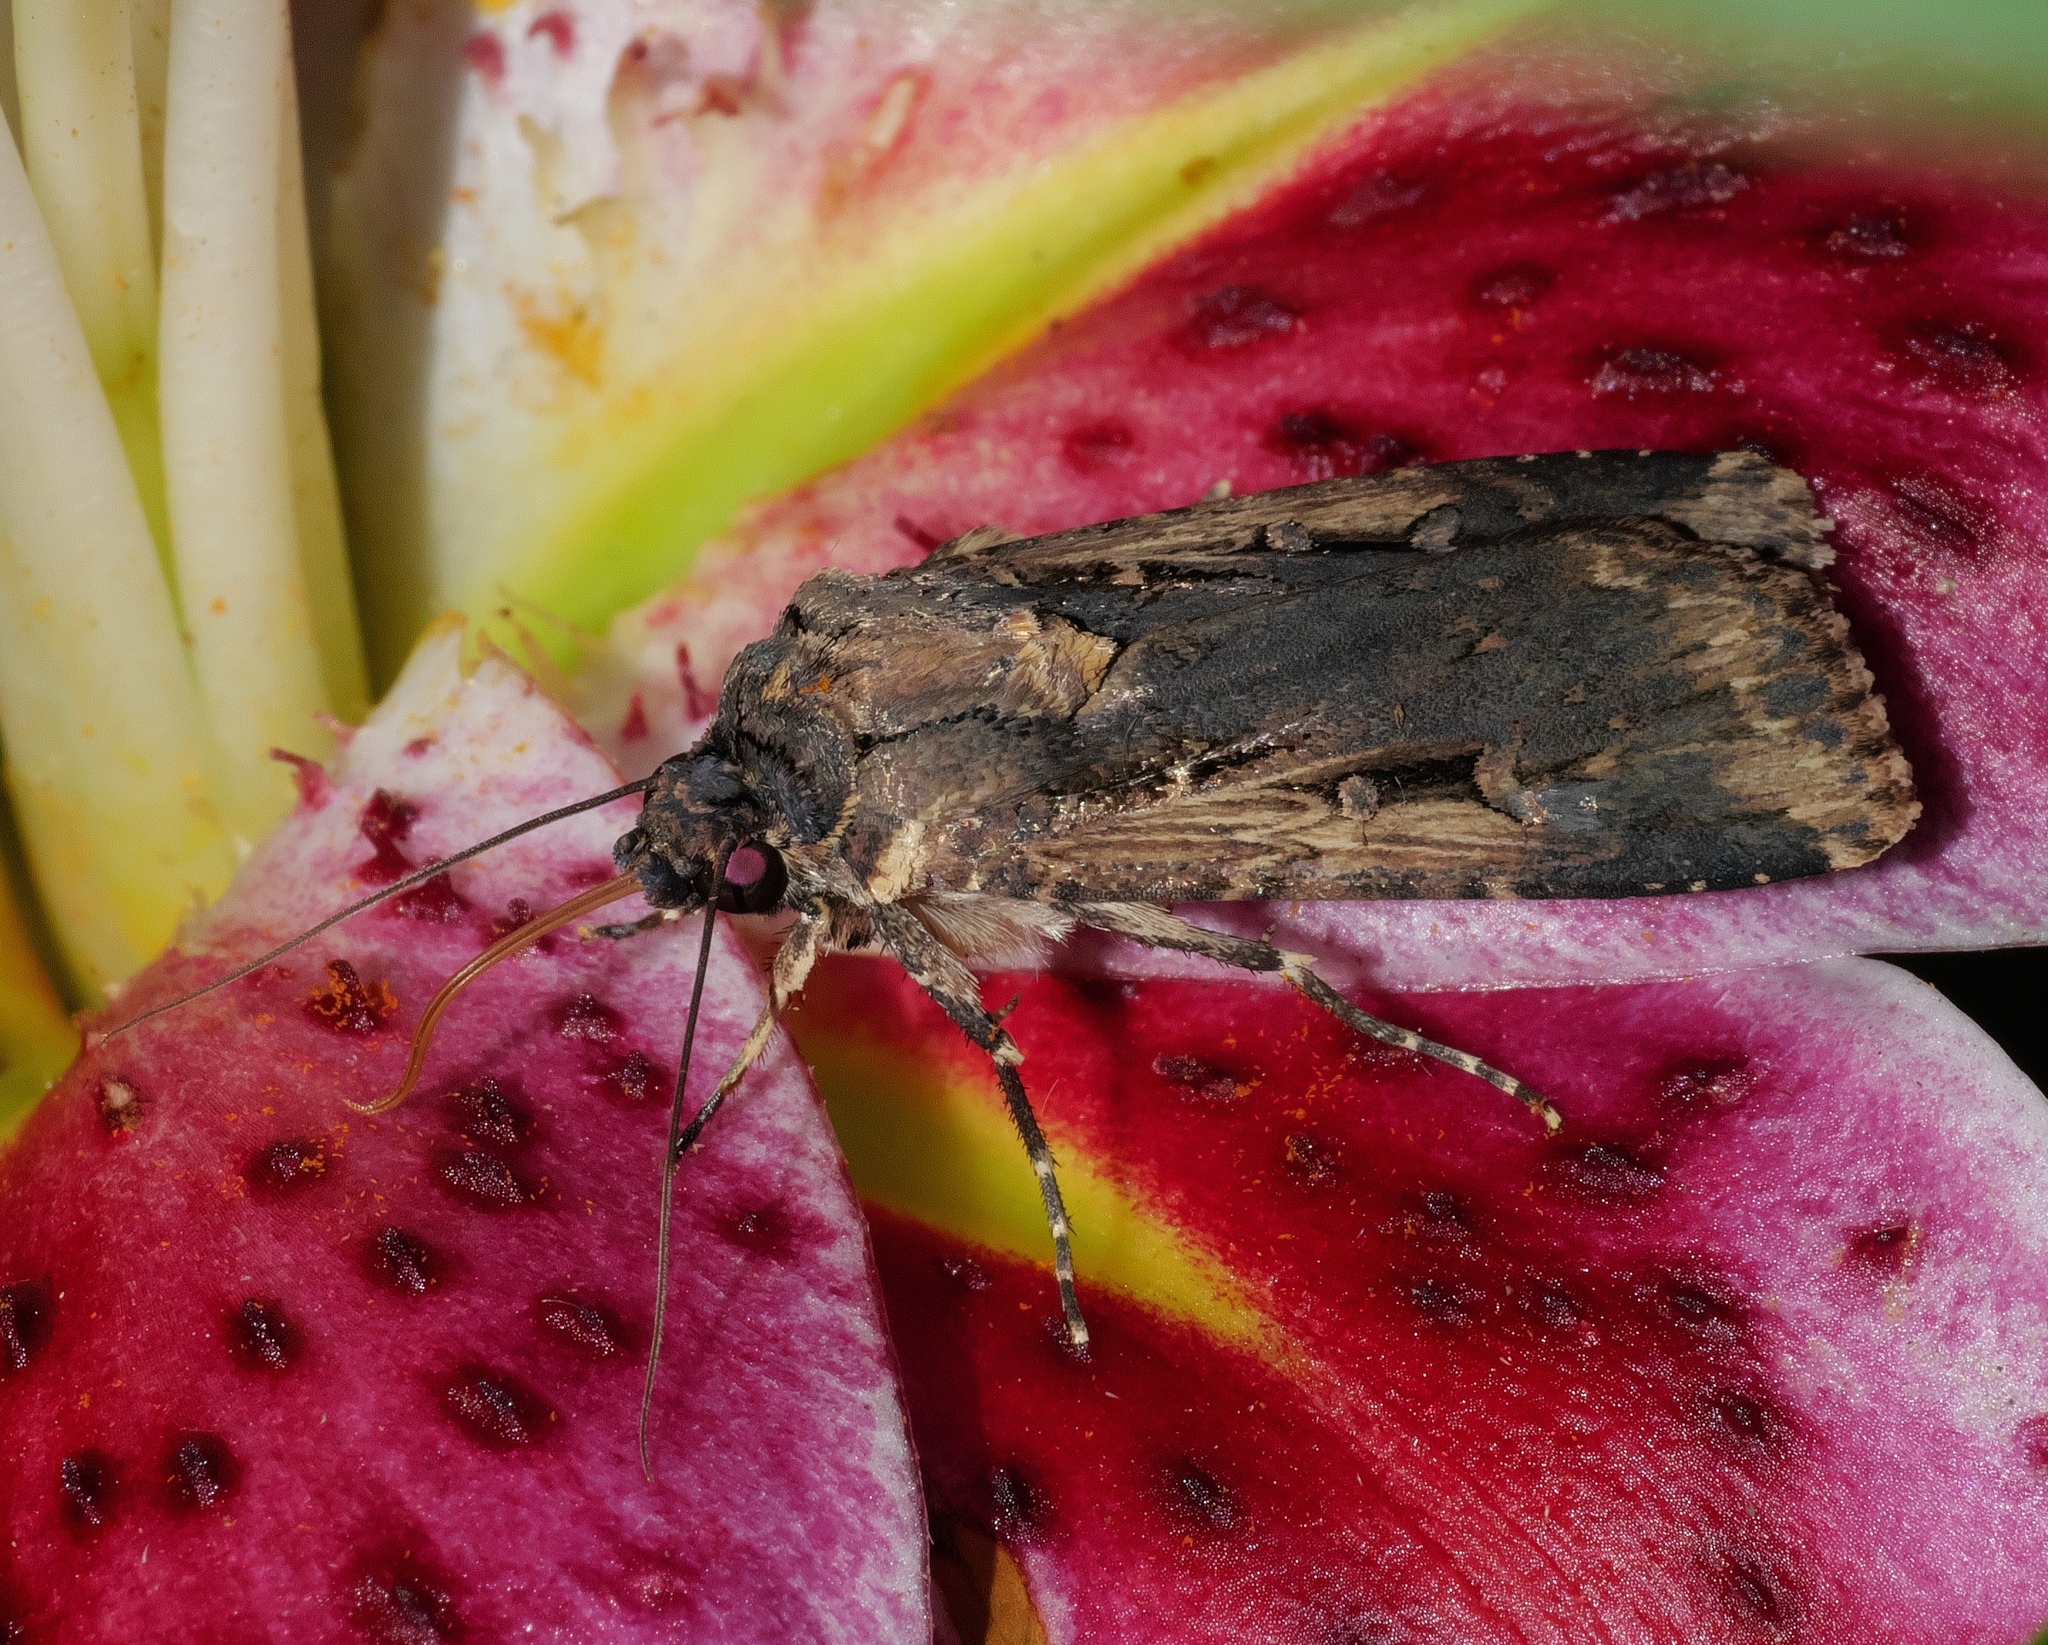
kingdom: Animalia
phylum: Arthropoda
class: Insecta
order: Lepidoptera
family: Noctuidae
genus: Feltia
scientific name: Feltia subterranea
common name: Granulate cutworm
